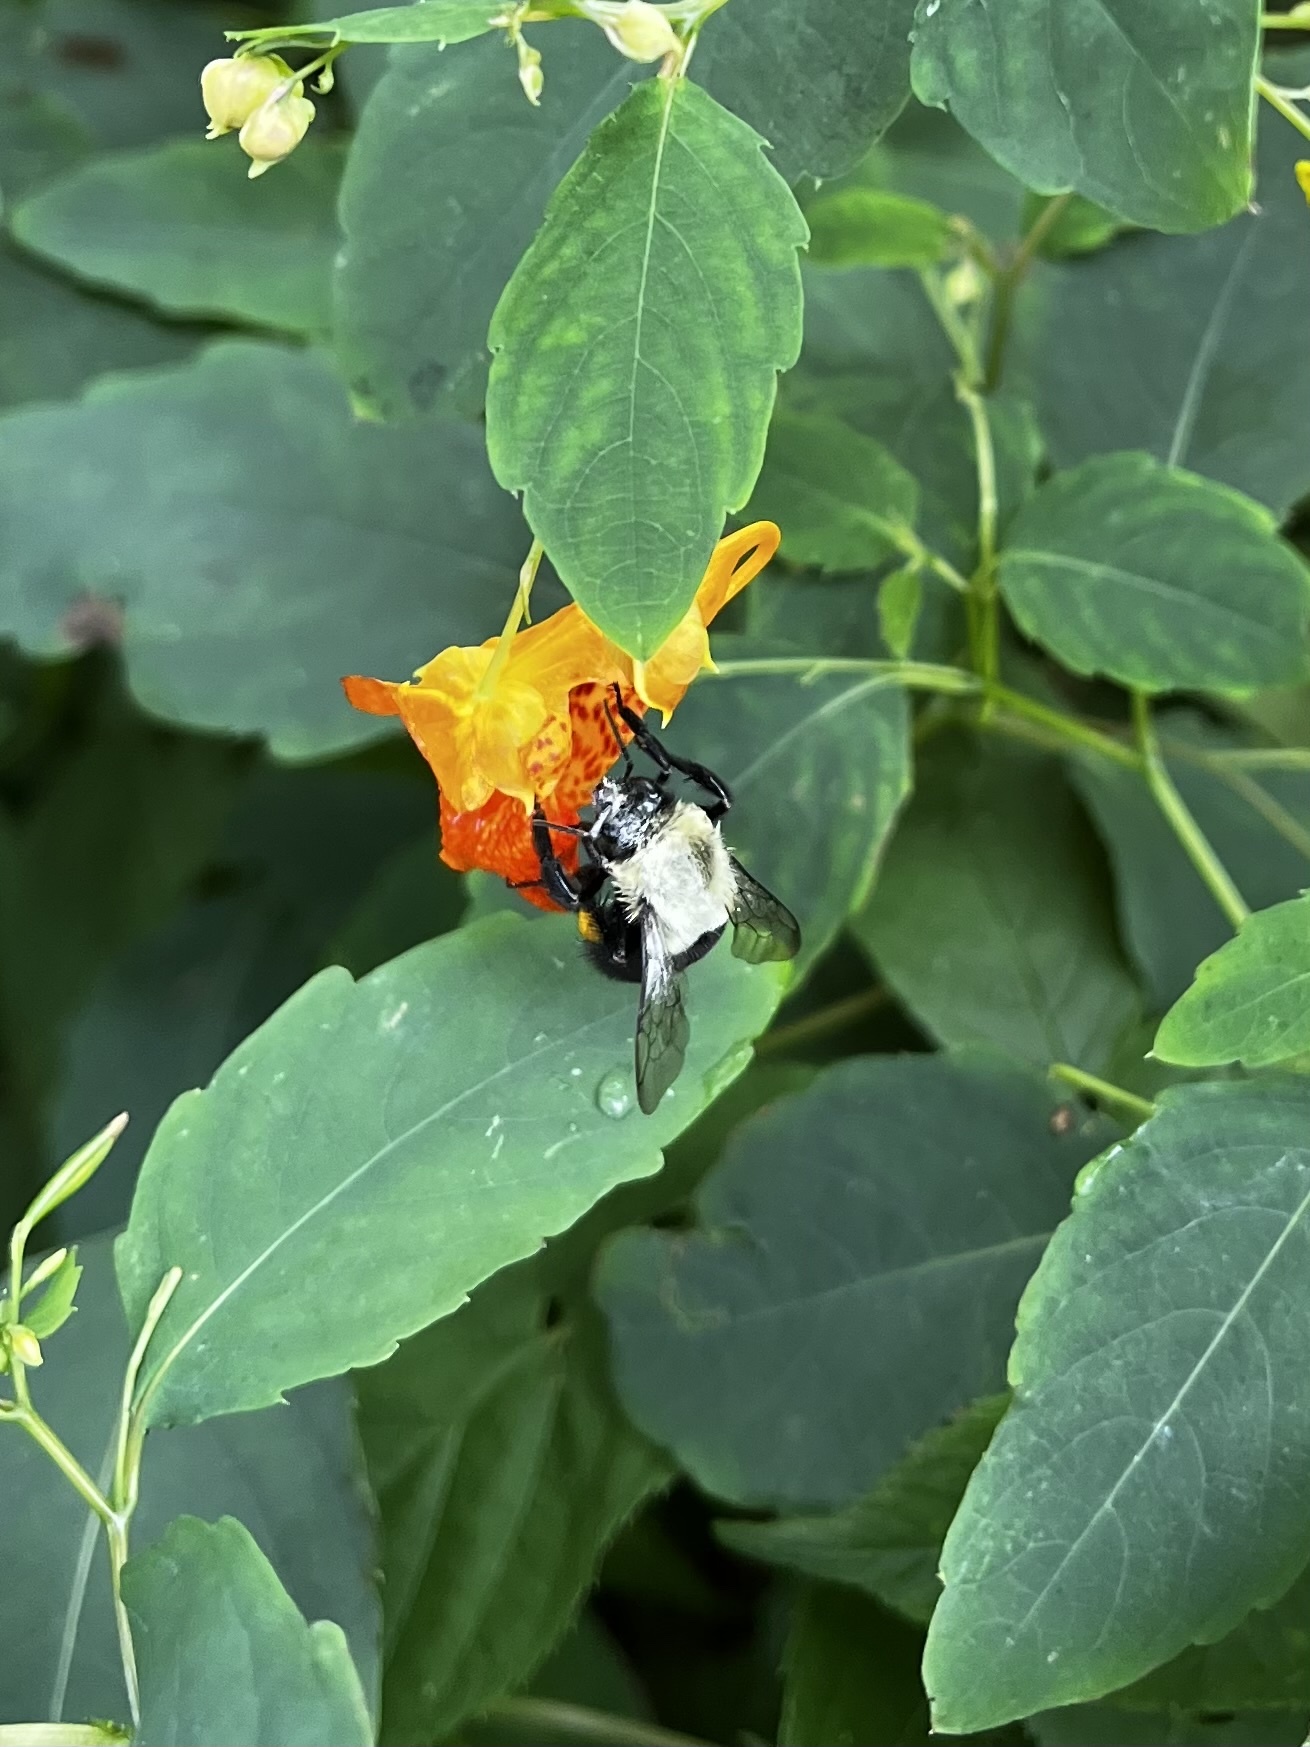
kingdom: Animalia
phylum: Arthropoda
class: Insecta
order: Hymenoptera
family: Apidae
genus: Bombus
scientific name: Bombus impatiens
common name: Common eastern bumble bee
